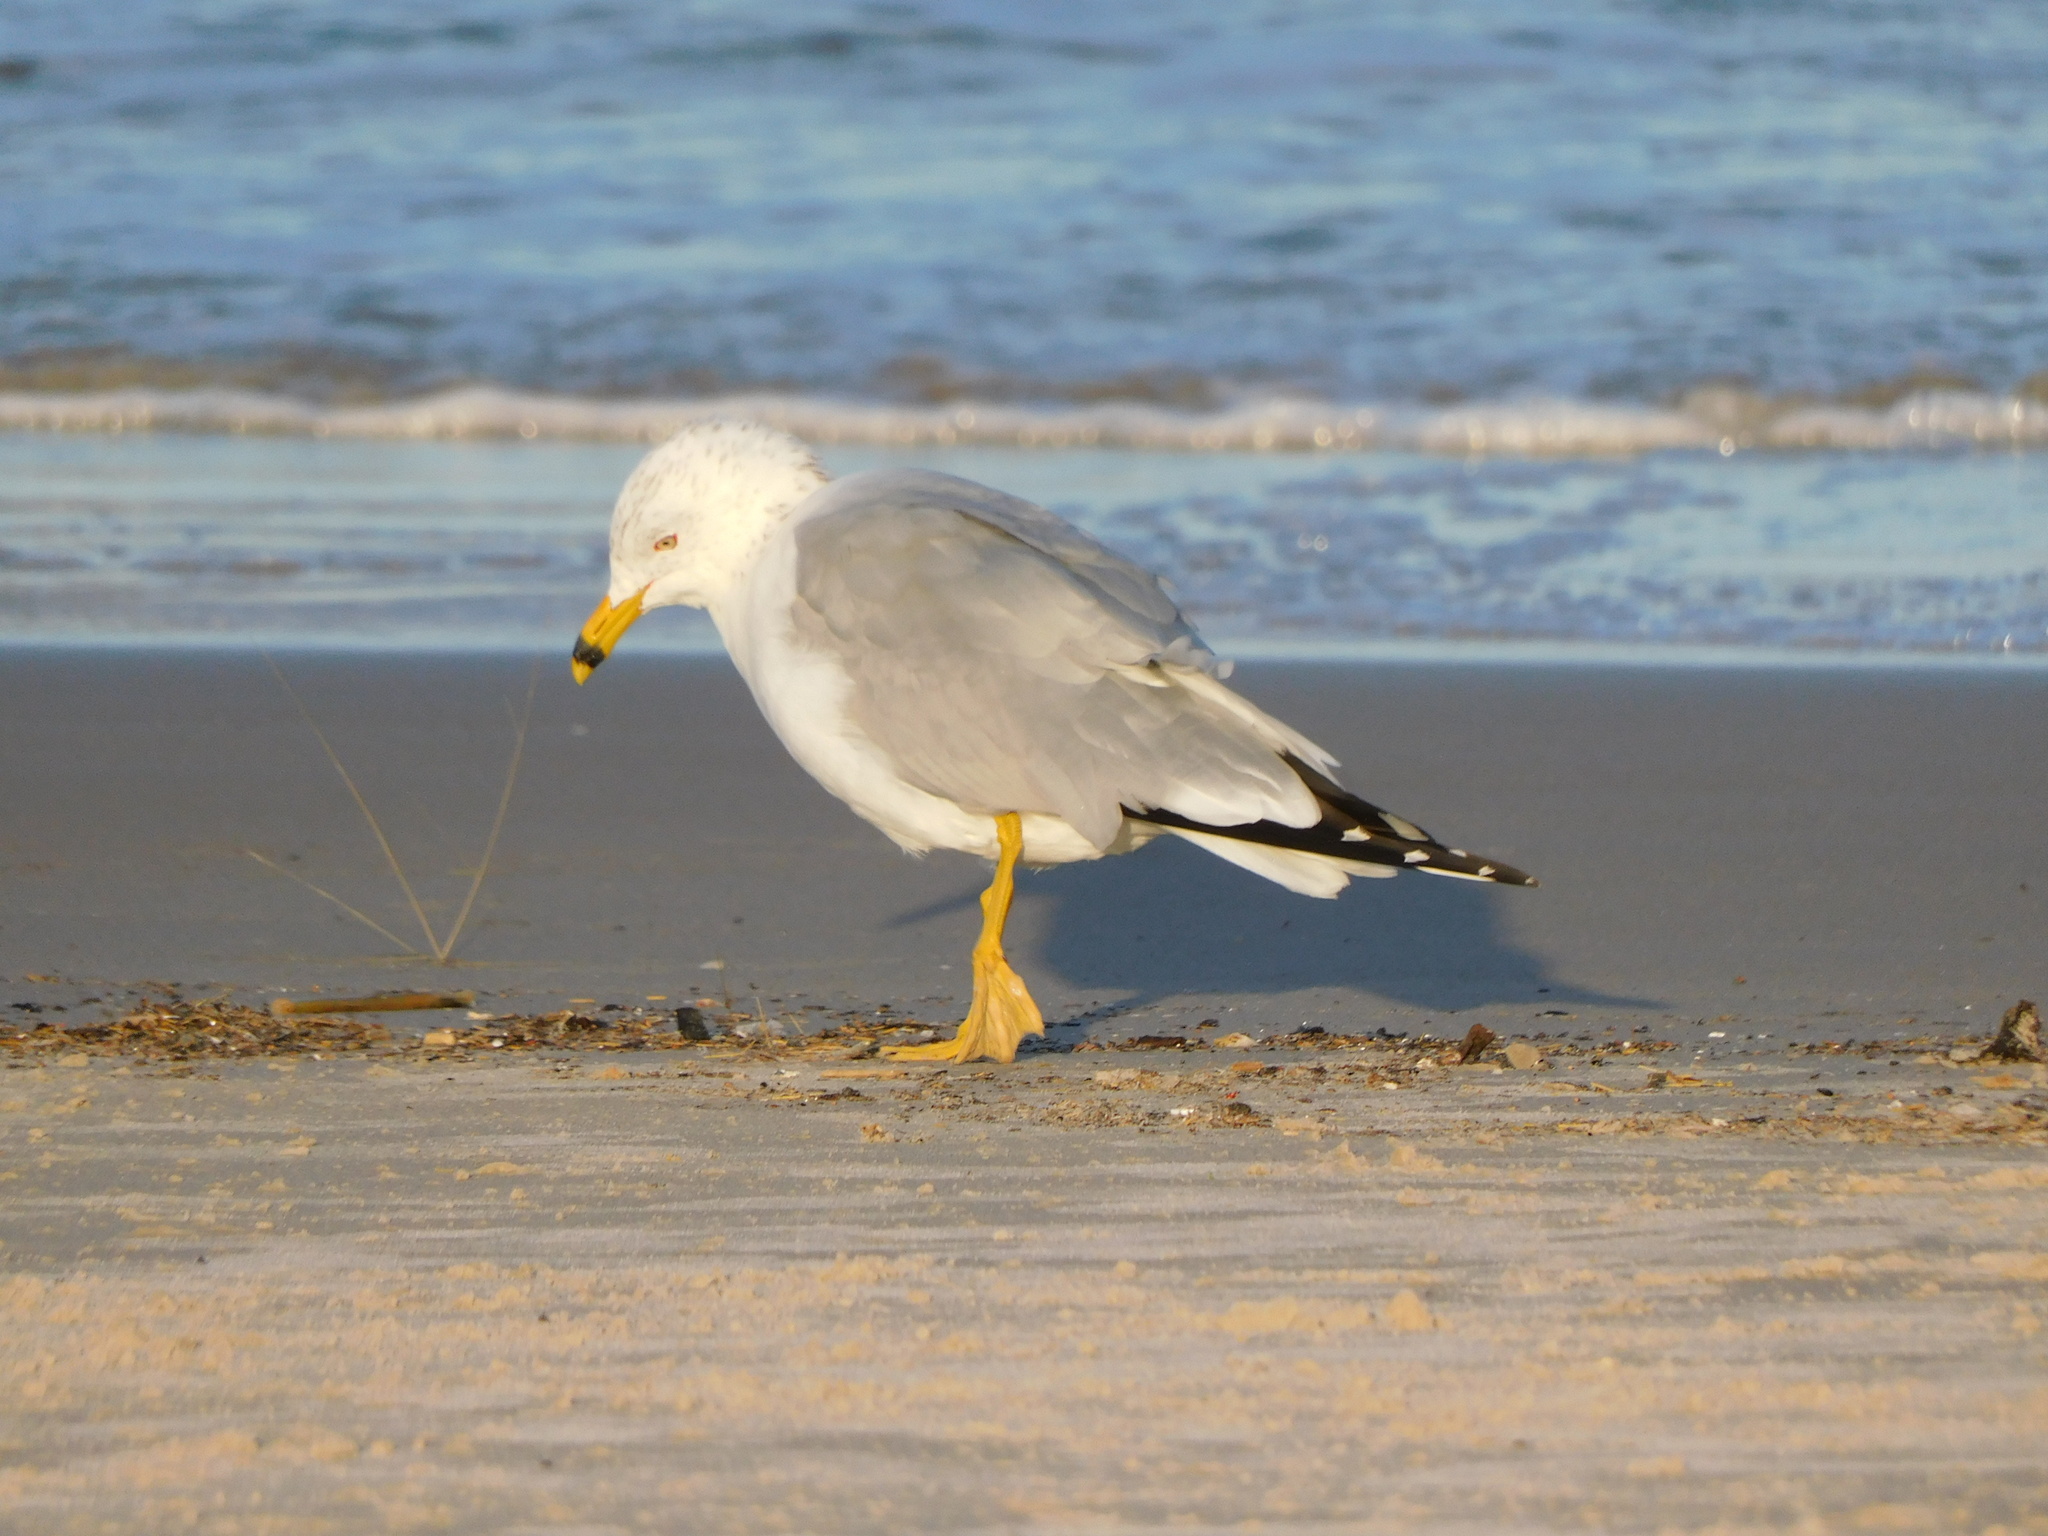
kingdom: Animalia
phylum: Chordata
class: Aves
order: Charadriiformes
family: Laridae
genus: Larus
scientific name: Larus delawarensis
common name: Ring-billed gull
